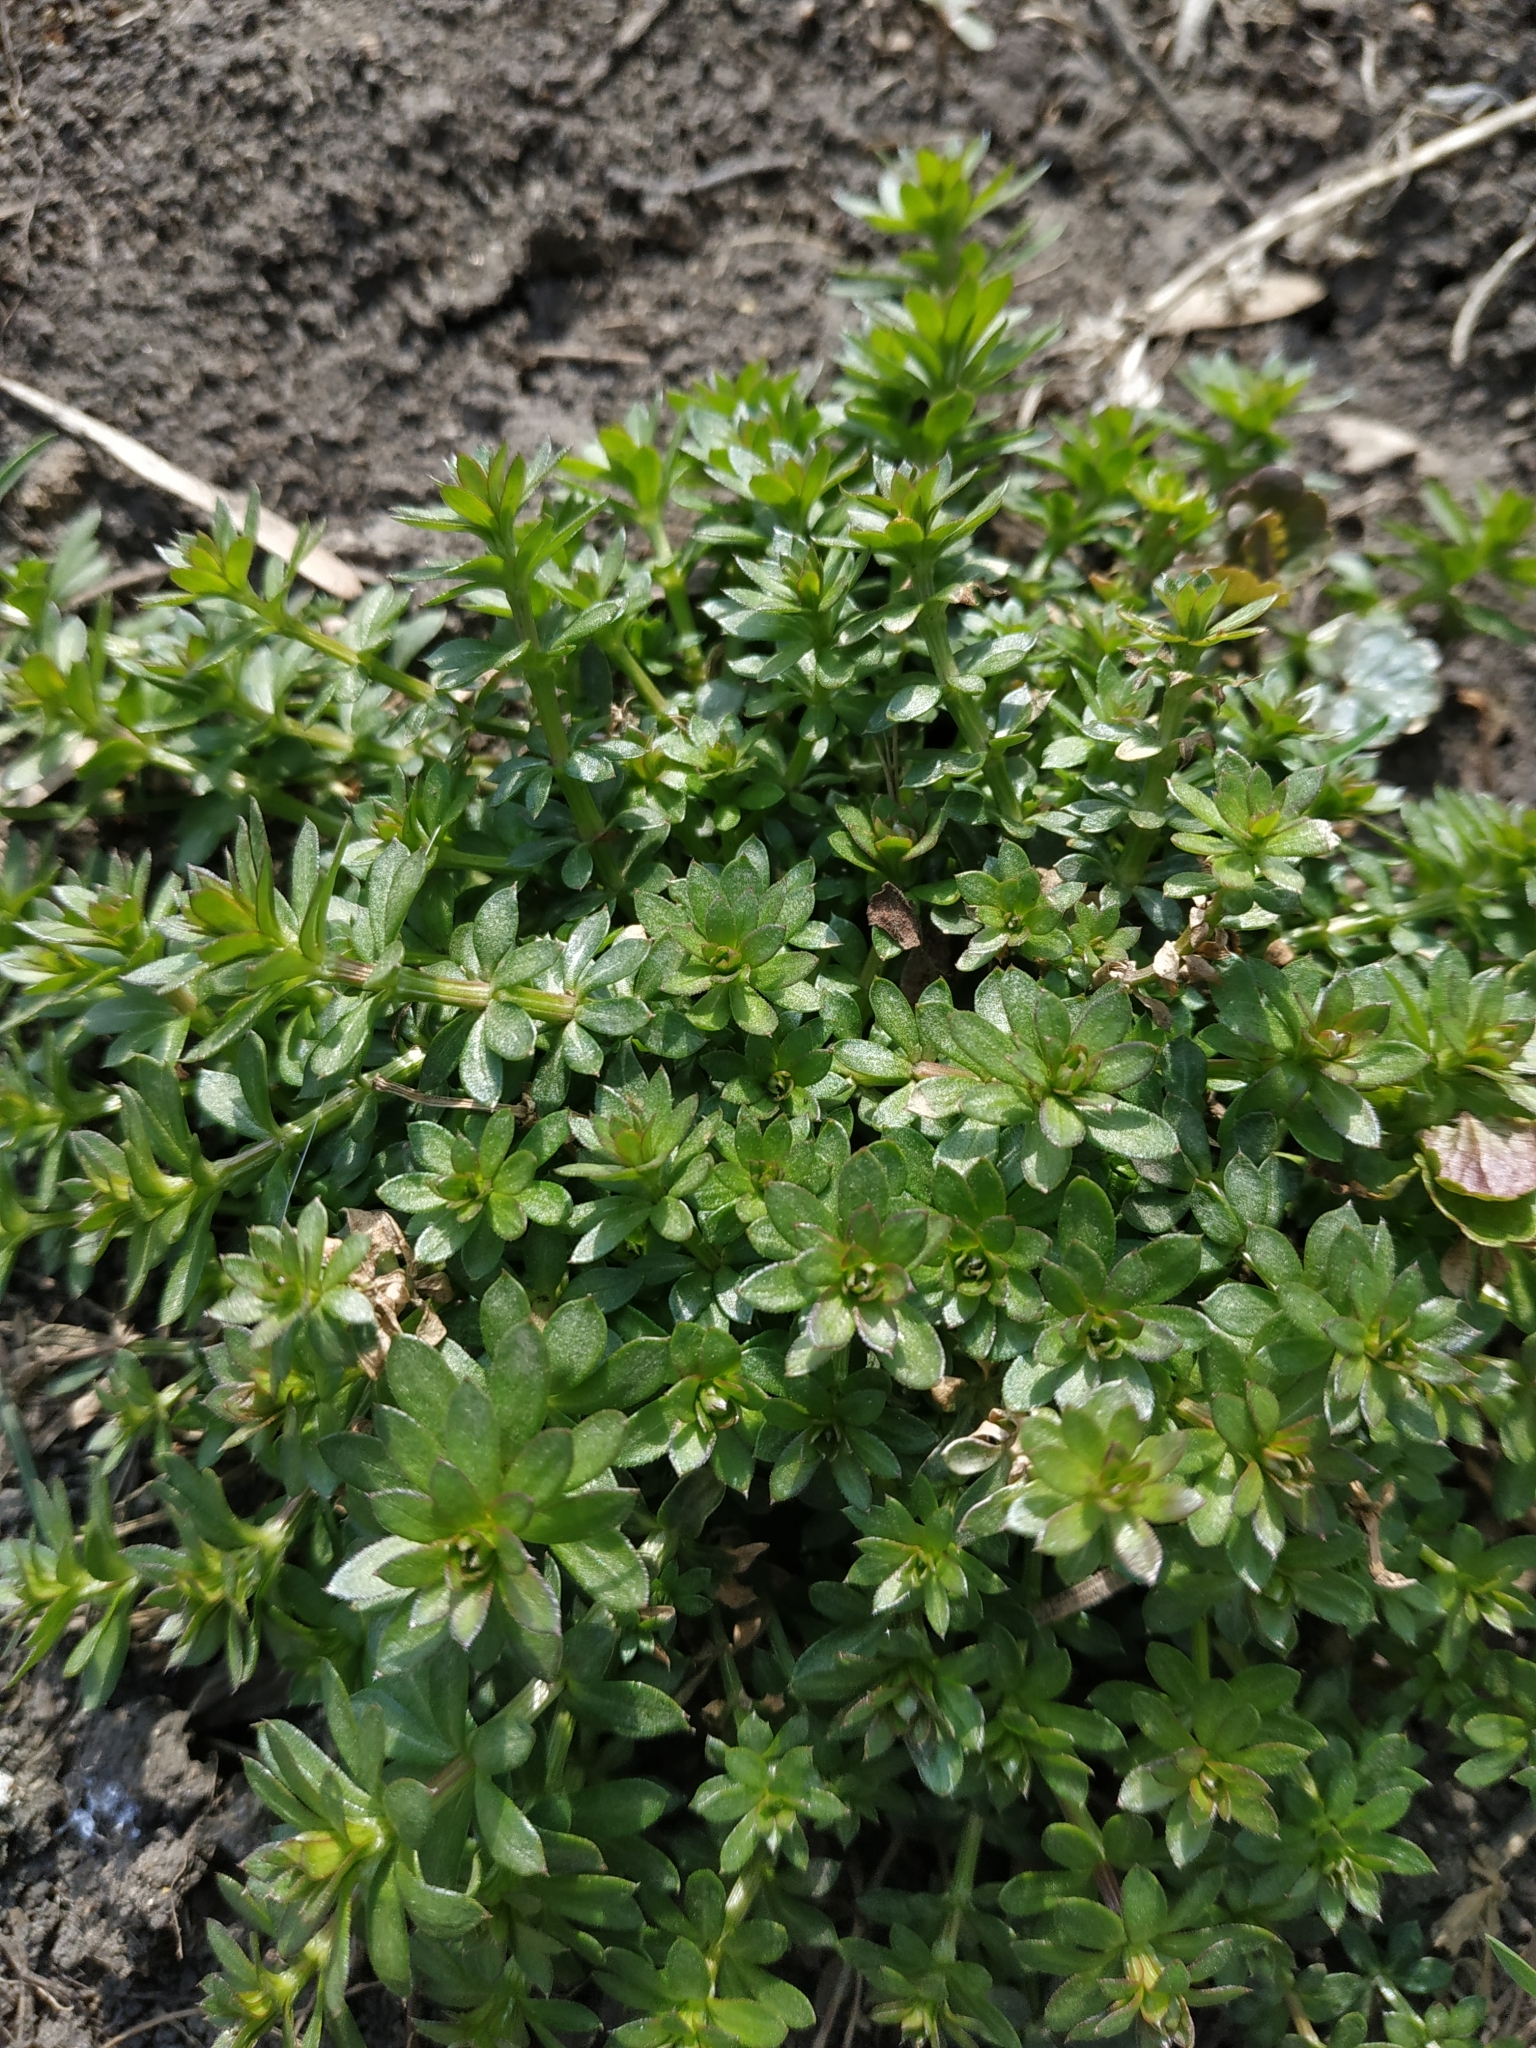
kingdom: Plantae
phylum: Tracheophyta
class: Magnoliopsida
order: Gentianales
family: Rubiaceae
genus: Galium
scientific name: Galium mollugo
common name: Hedge bedstraw
